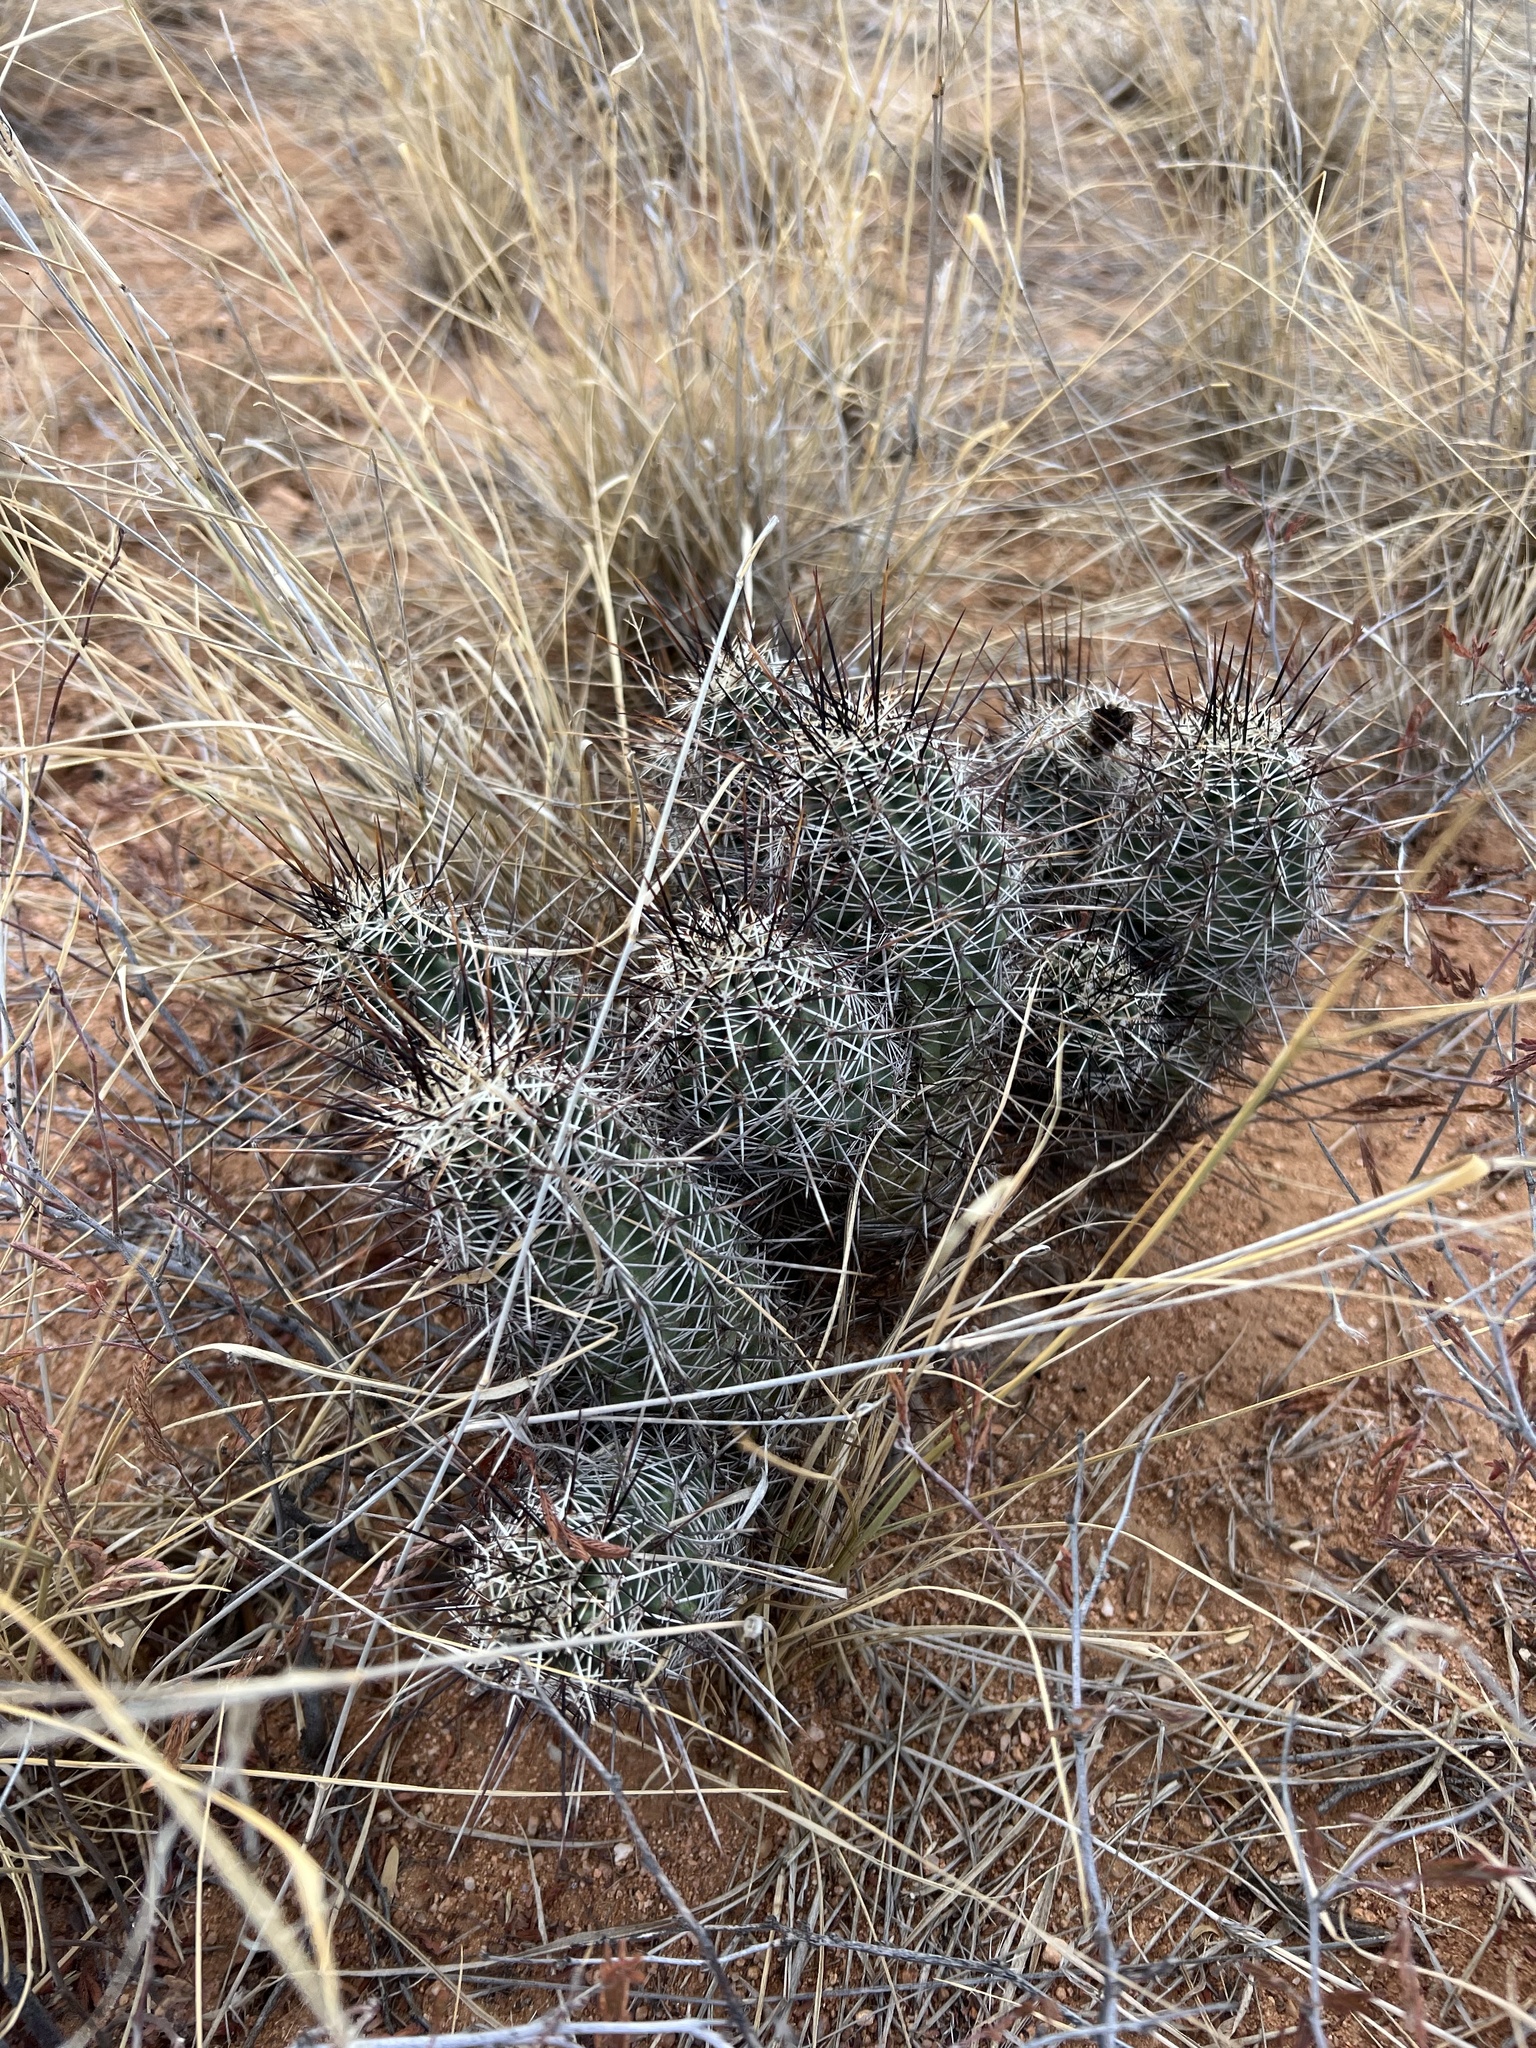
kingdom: Plantae
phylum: Tracheophyta
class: Magnoliopsida
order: Caryophyllales
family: Cactaceae
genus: Echinocereus
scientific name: Echinocereus fasciculatus
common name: Bundle hedgehog
